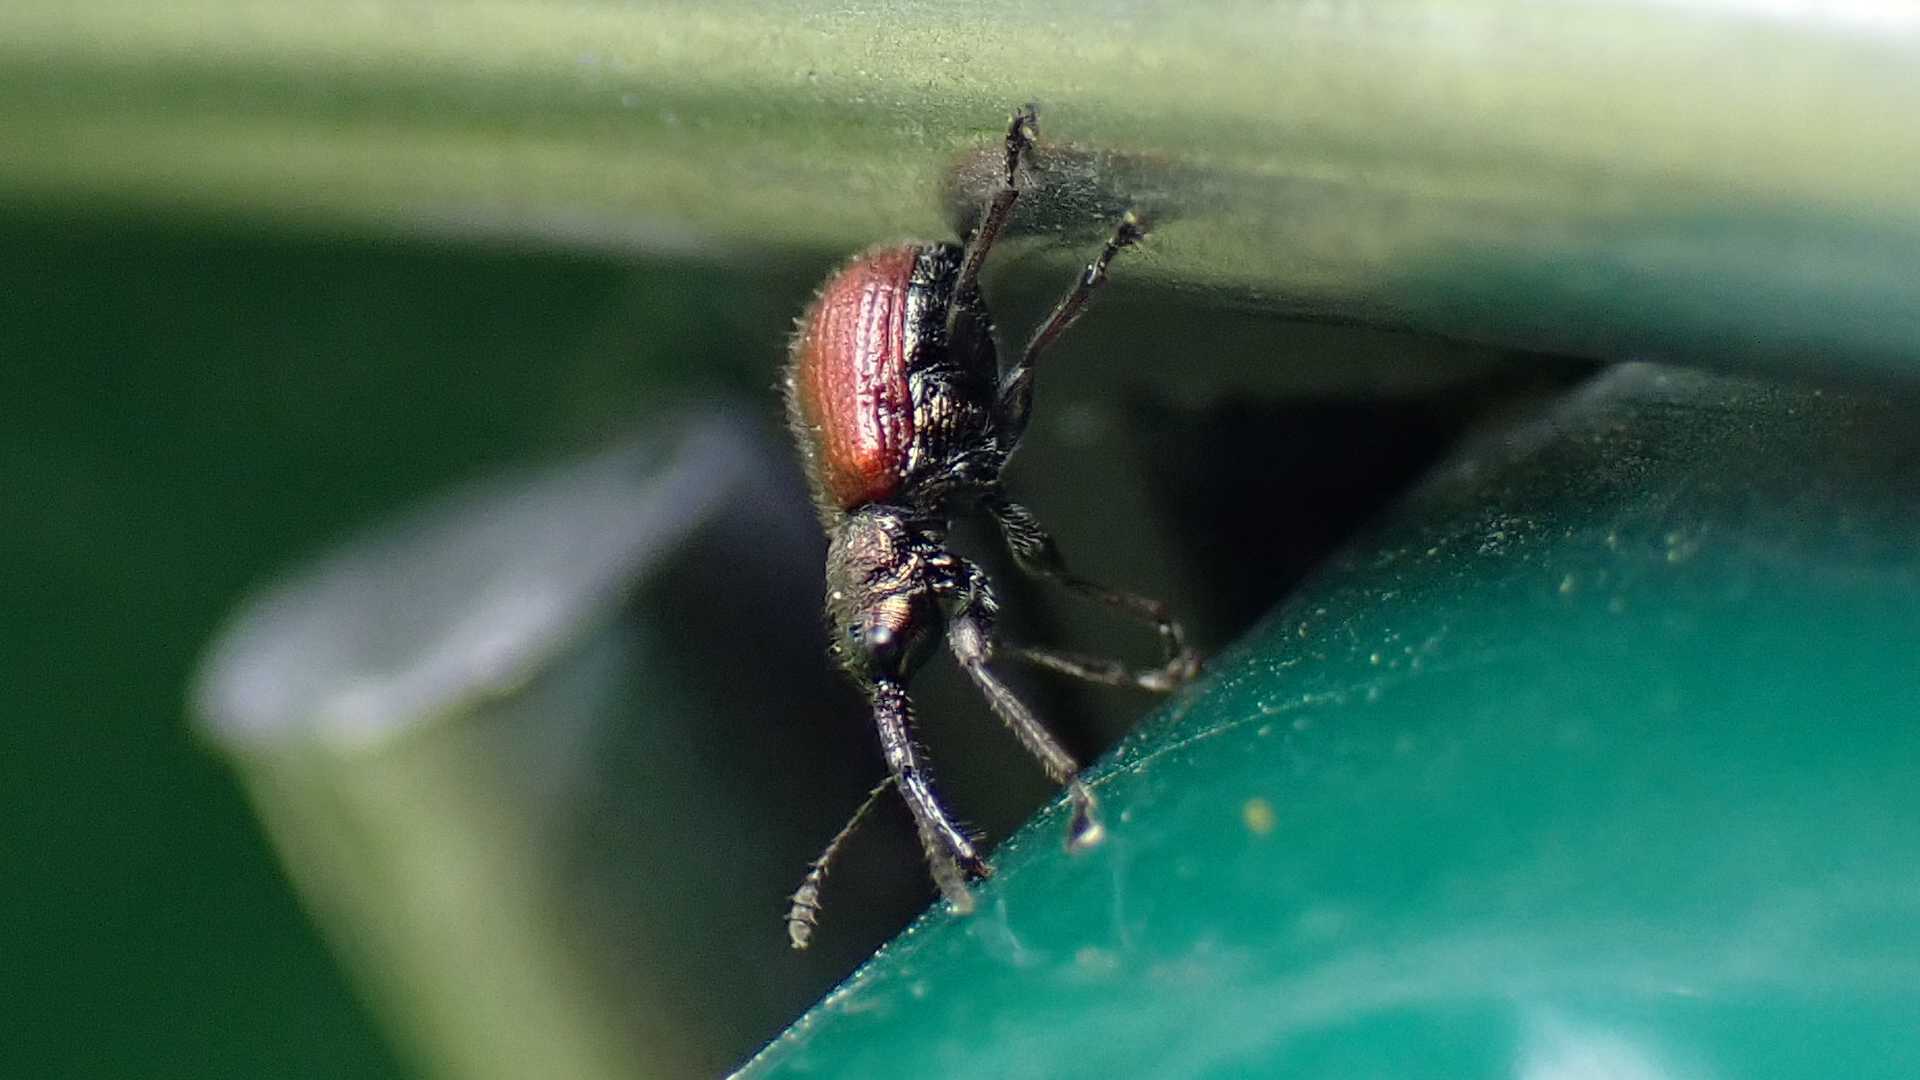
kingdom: Animalia
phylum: Arthropoda
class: Insecta
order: Coleoptera
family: Rhynchitidae
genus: Tatianaerhynchites
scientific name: Tatianaerhynchites aequatus
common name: Apple fruit rhynchites
